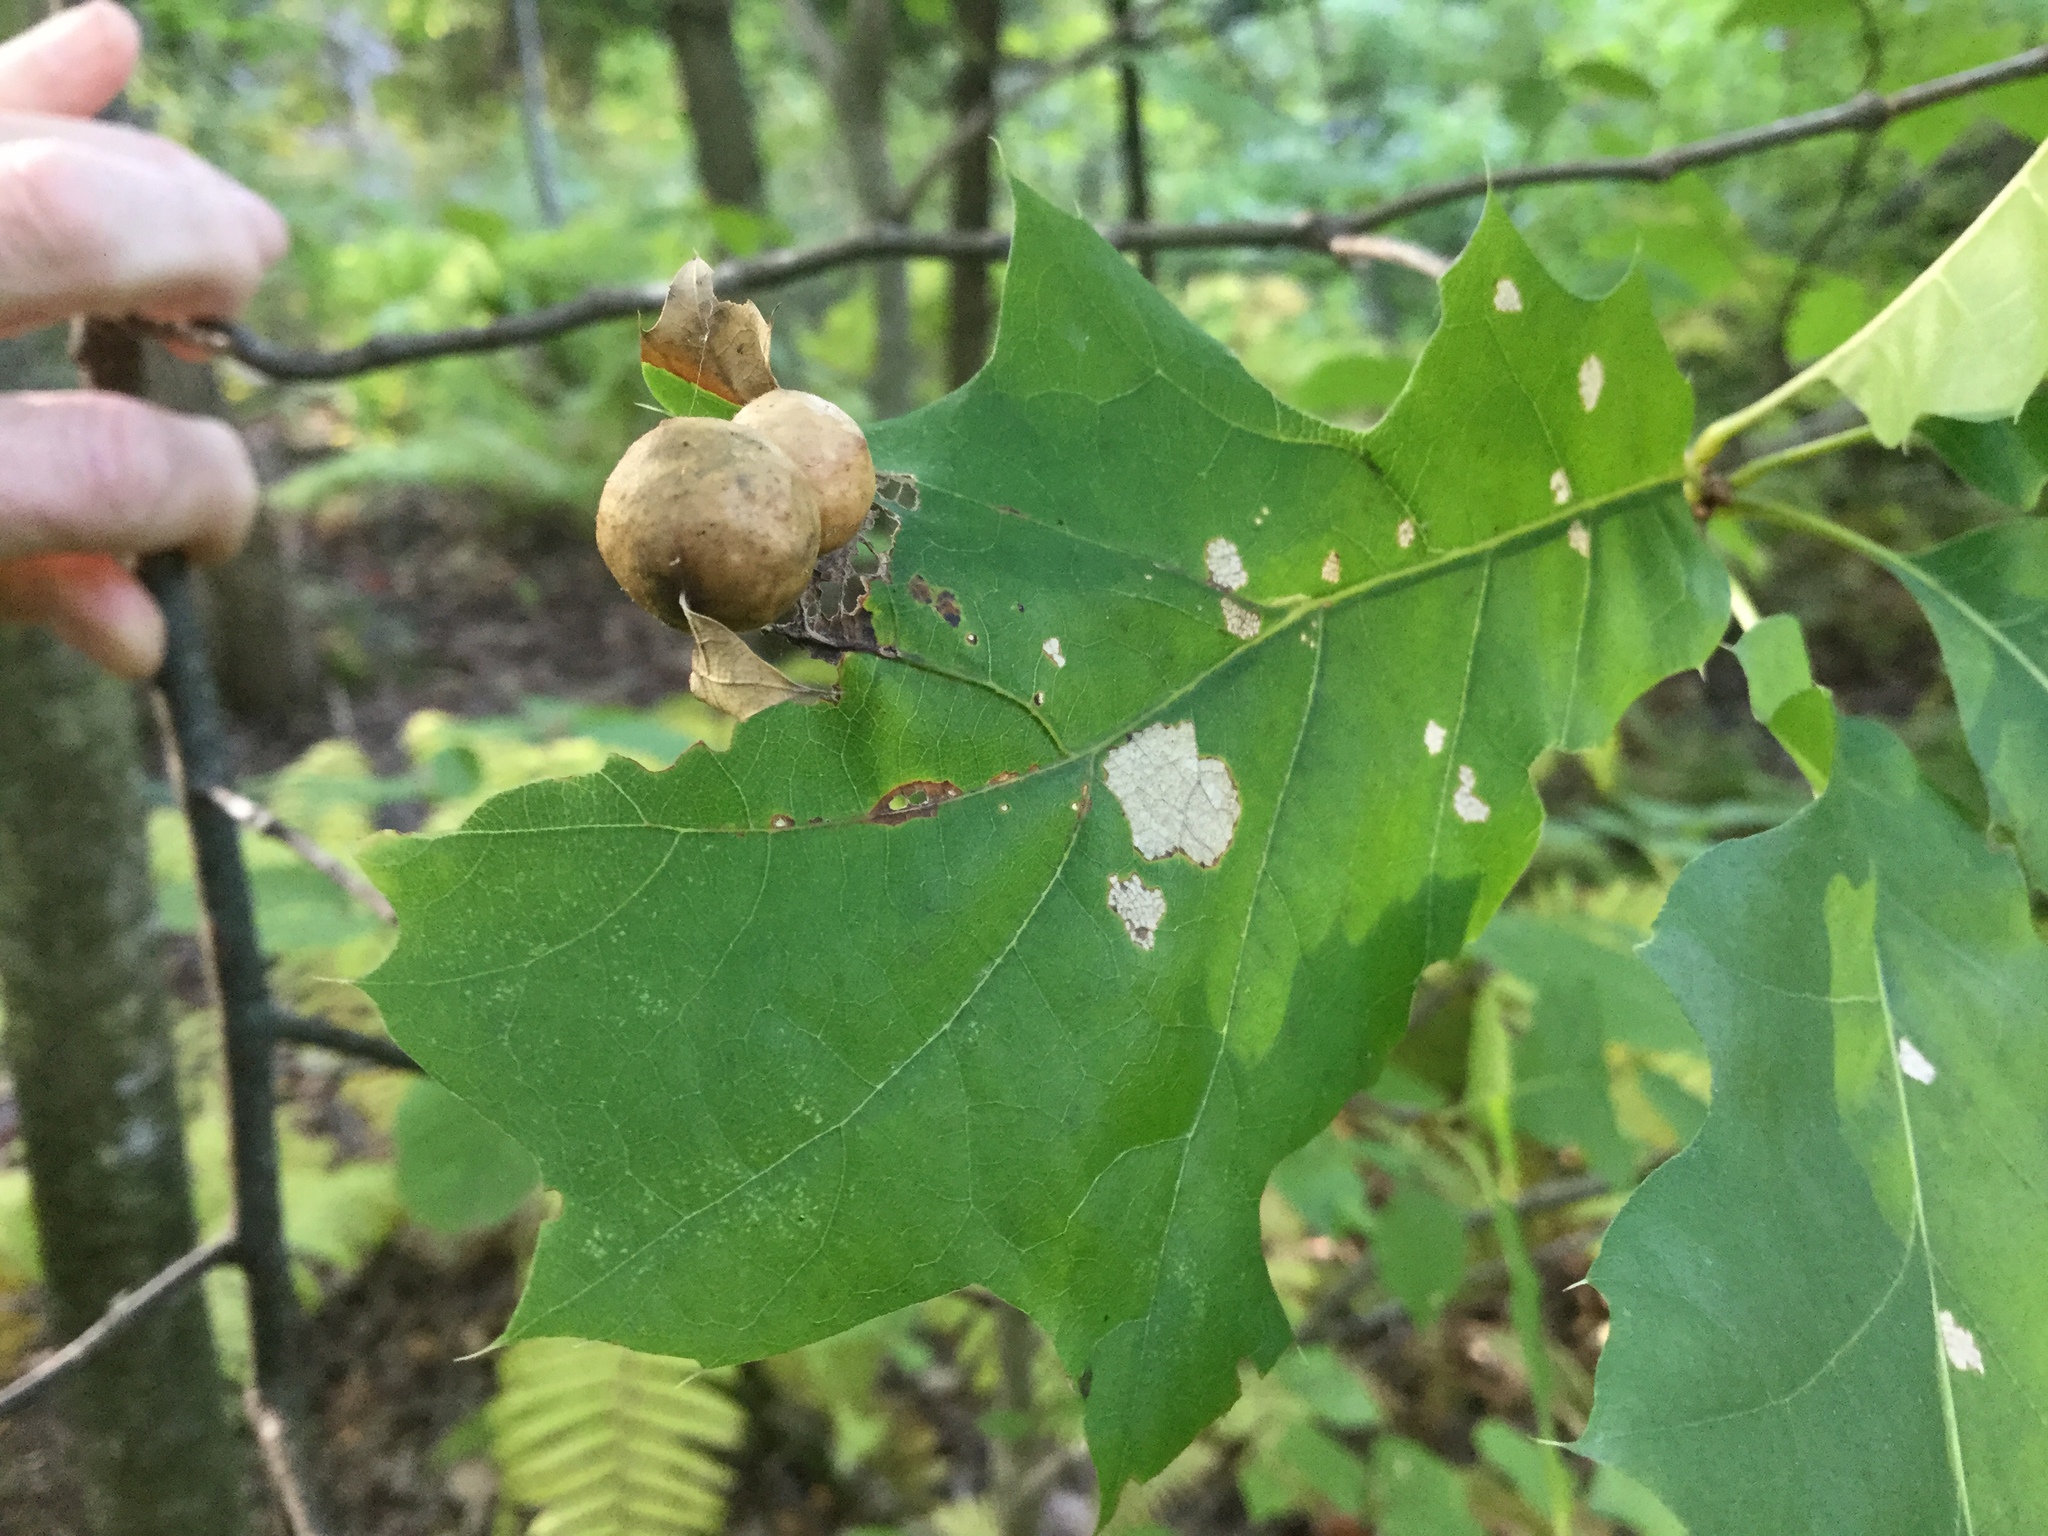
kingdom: Animalia
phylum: Arthropoda
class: Insecta
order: Hymenoptera
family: Cynipidae
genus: Amphibolips
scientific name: Amphibolips
